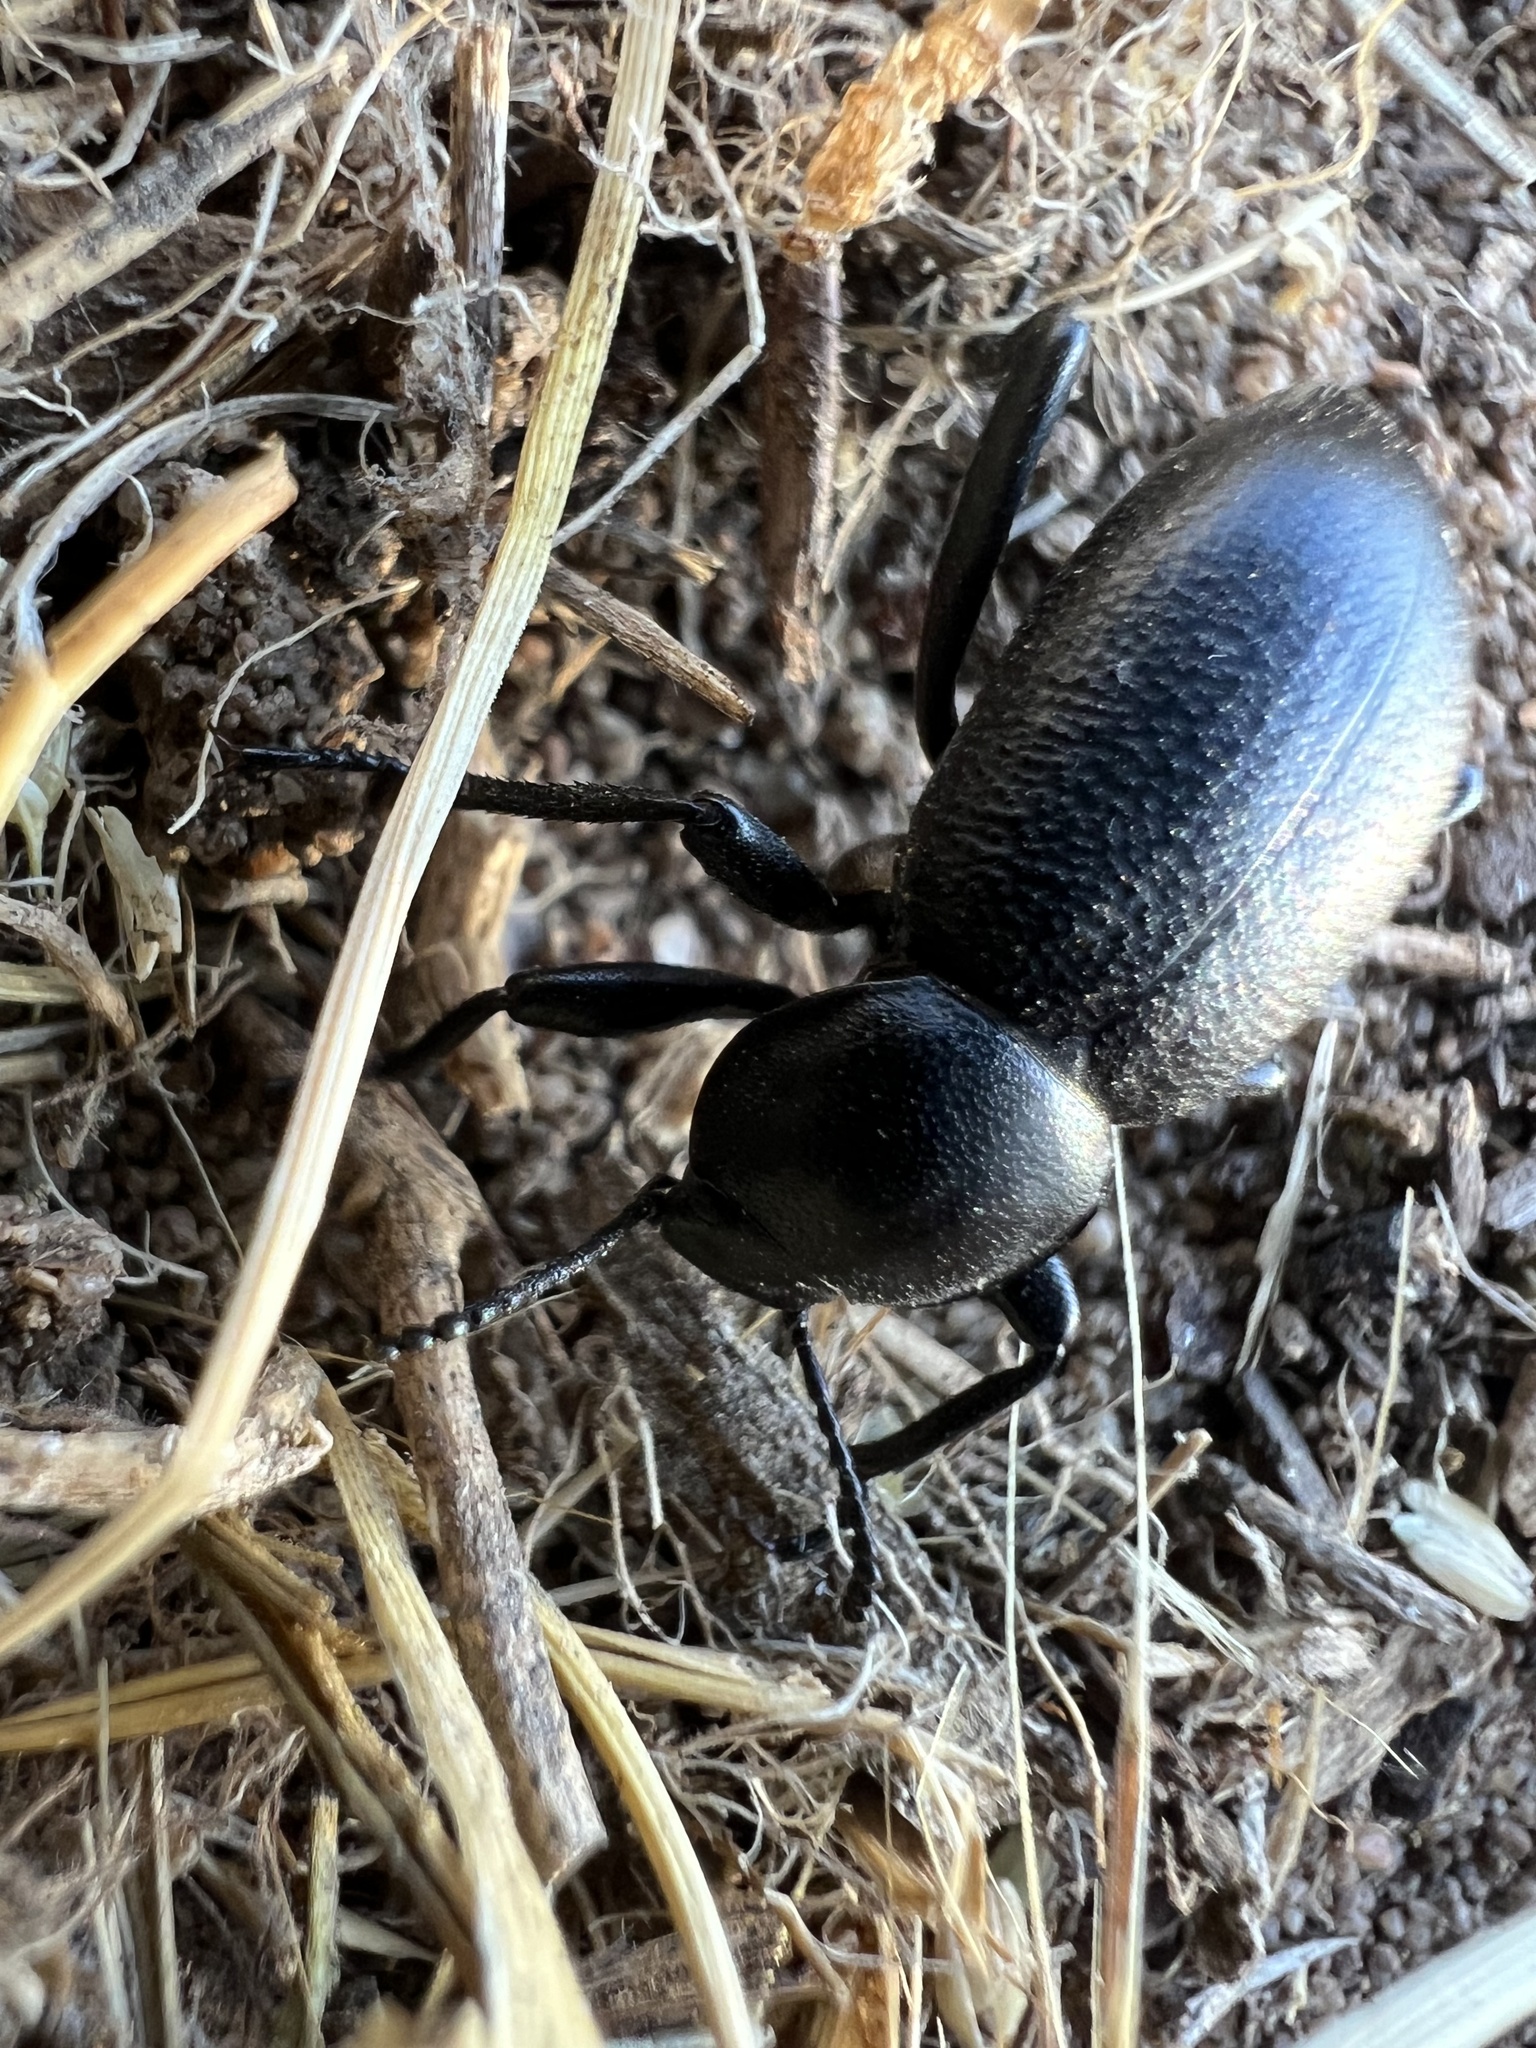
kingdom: Animalia
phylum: Arthropoda
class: Insecta
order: Coleoptera
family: Tenebrionidae
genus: Eleodes
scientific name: Eleodes marginata
